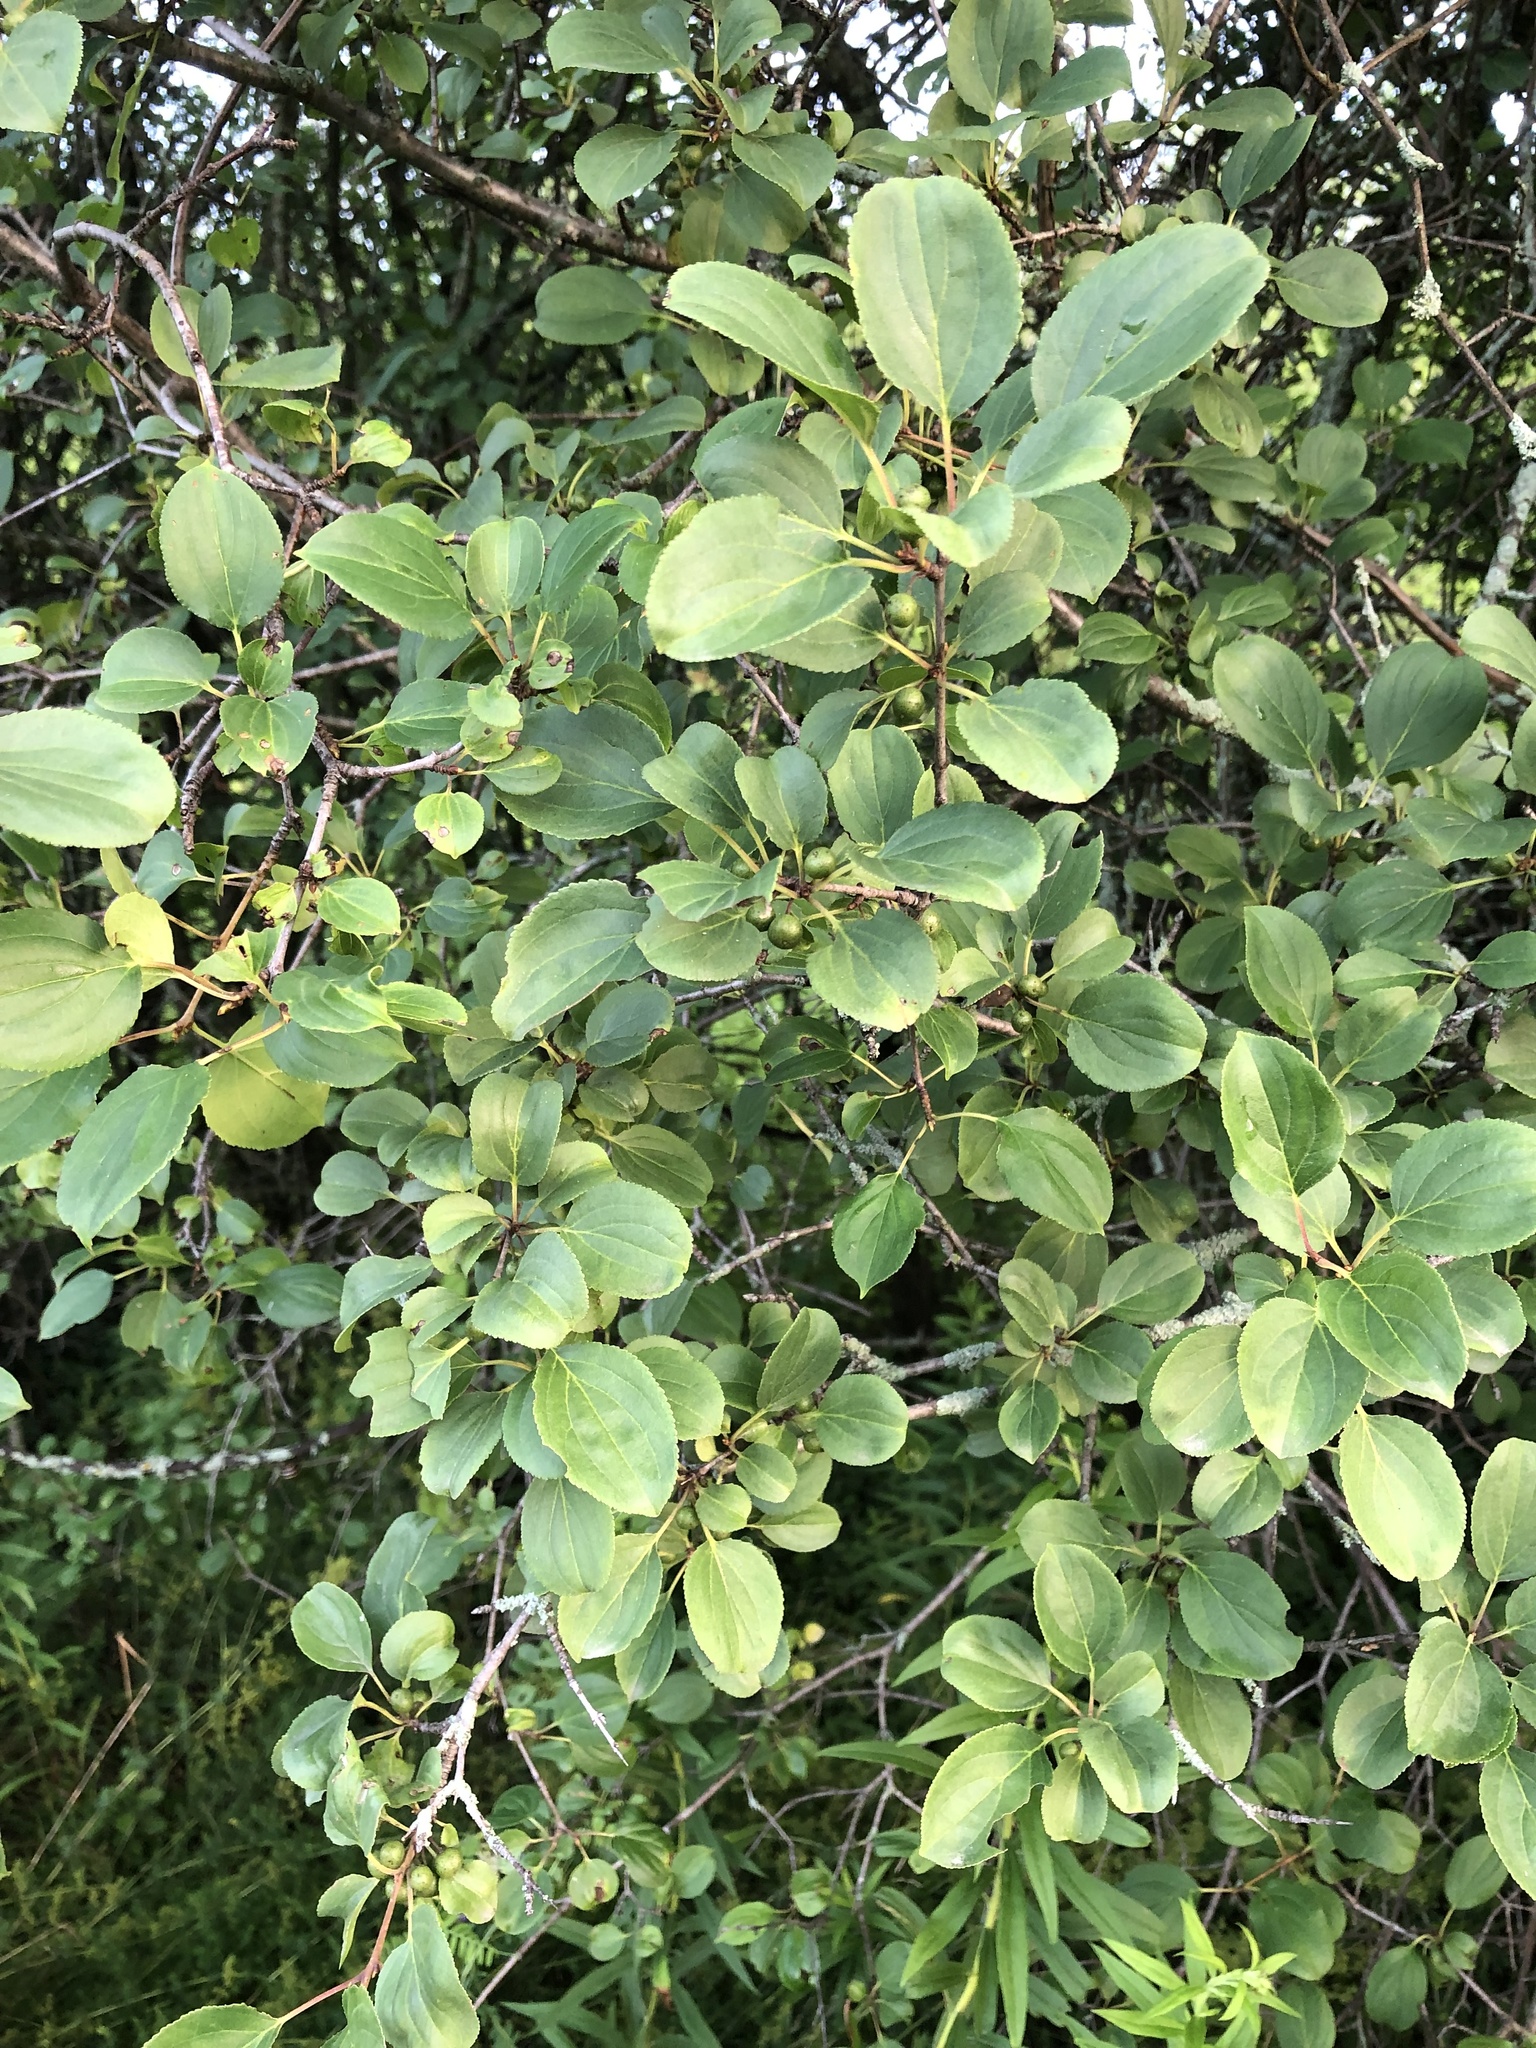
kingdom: Plantae
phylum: Tracheophyta
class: Magnoliopsida
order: Rosales
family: Rhamnaceae
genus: Rhamnus
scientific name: Rhamnus cathartica
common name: Common buckthorn
